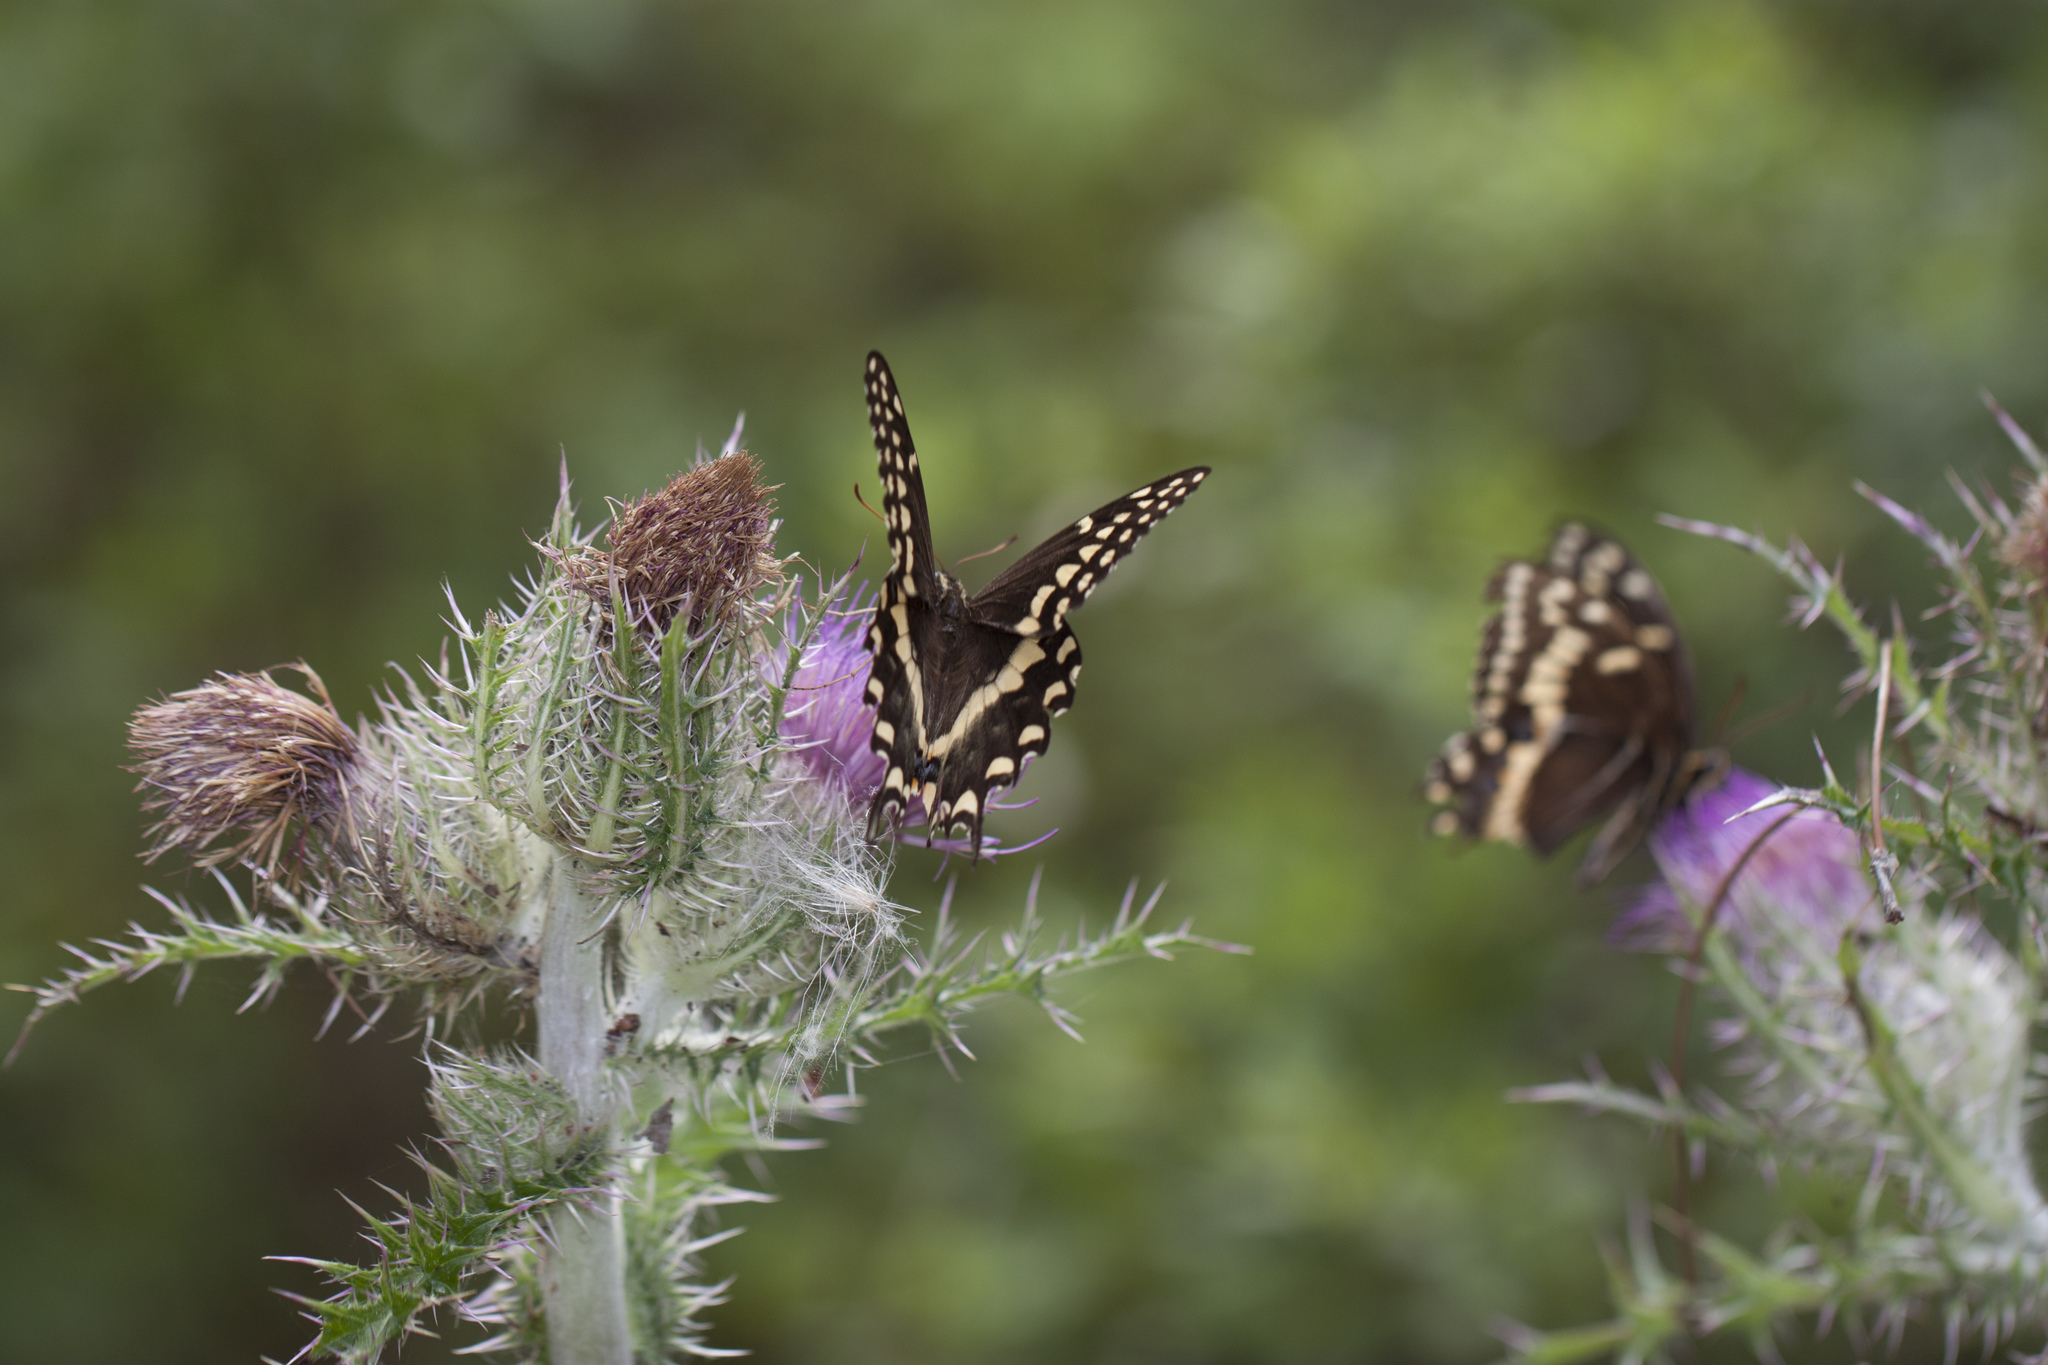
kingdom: Animalia
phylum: Arthropoda
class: Insecta
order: Lepidoptera
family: Papilionidae
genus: Papilio
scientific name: Papilio palamedes
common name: Palamedes swallowtail
